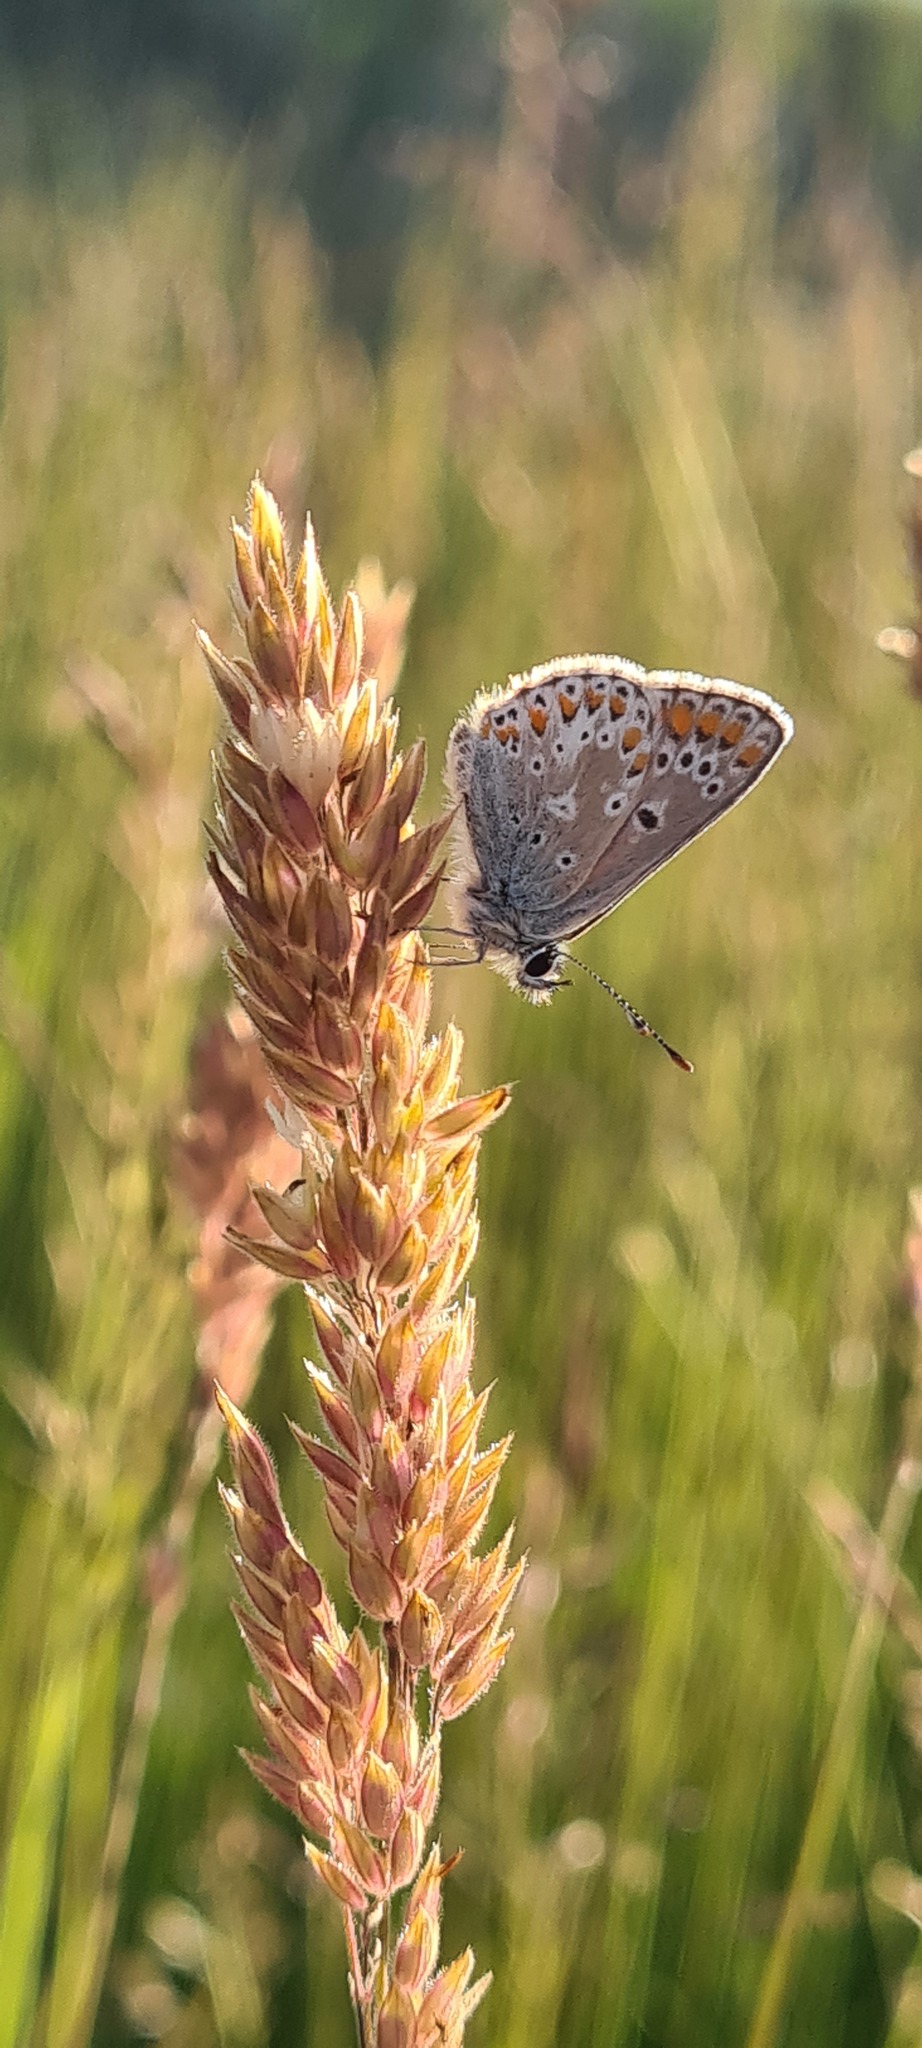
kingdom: Animalia
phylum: Arthropoda
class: Insecta
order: Lepidoptera
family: Lycaenidae
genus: Aricia
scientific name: Aricia agestis
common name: Brown argus
